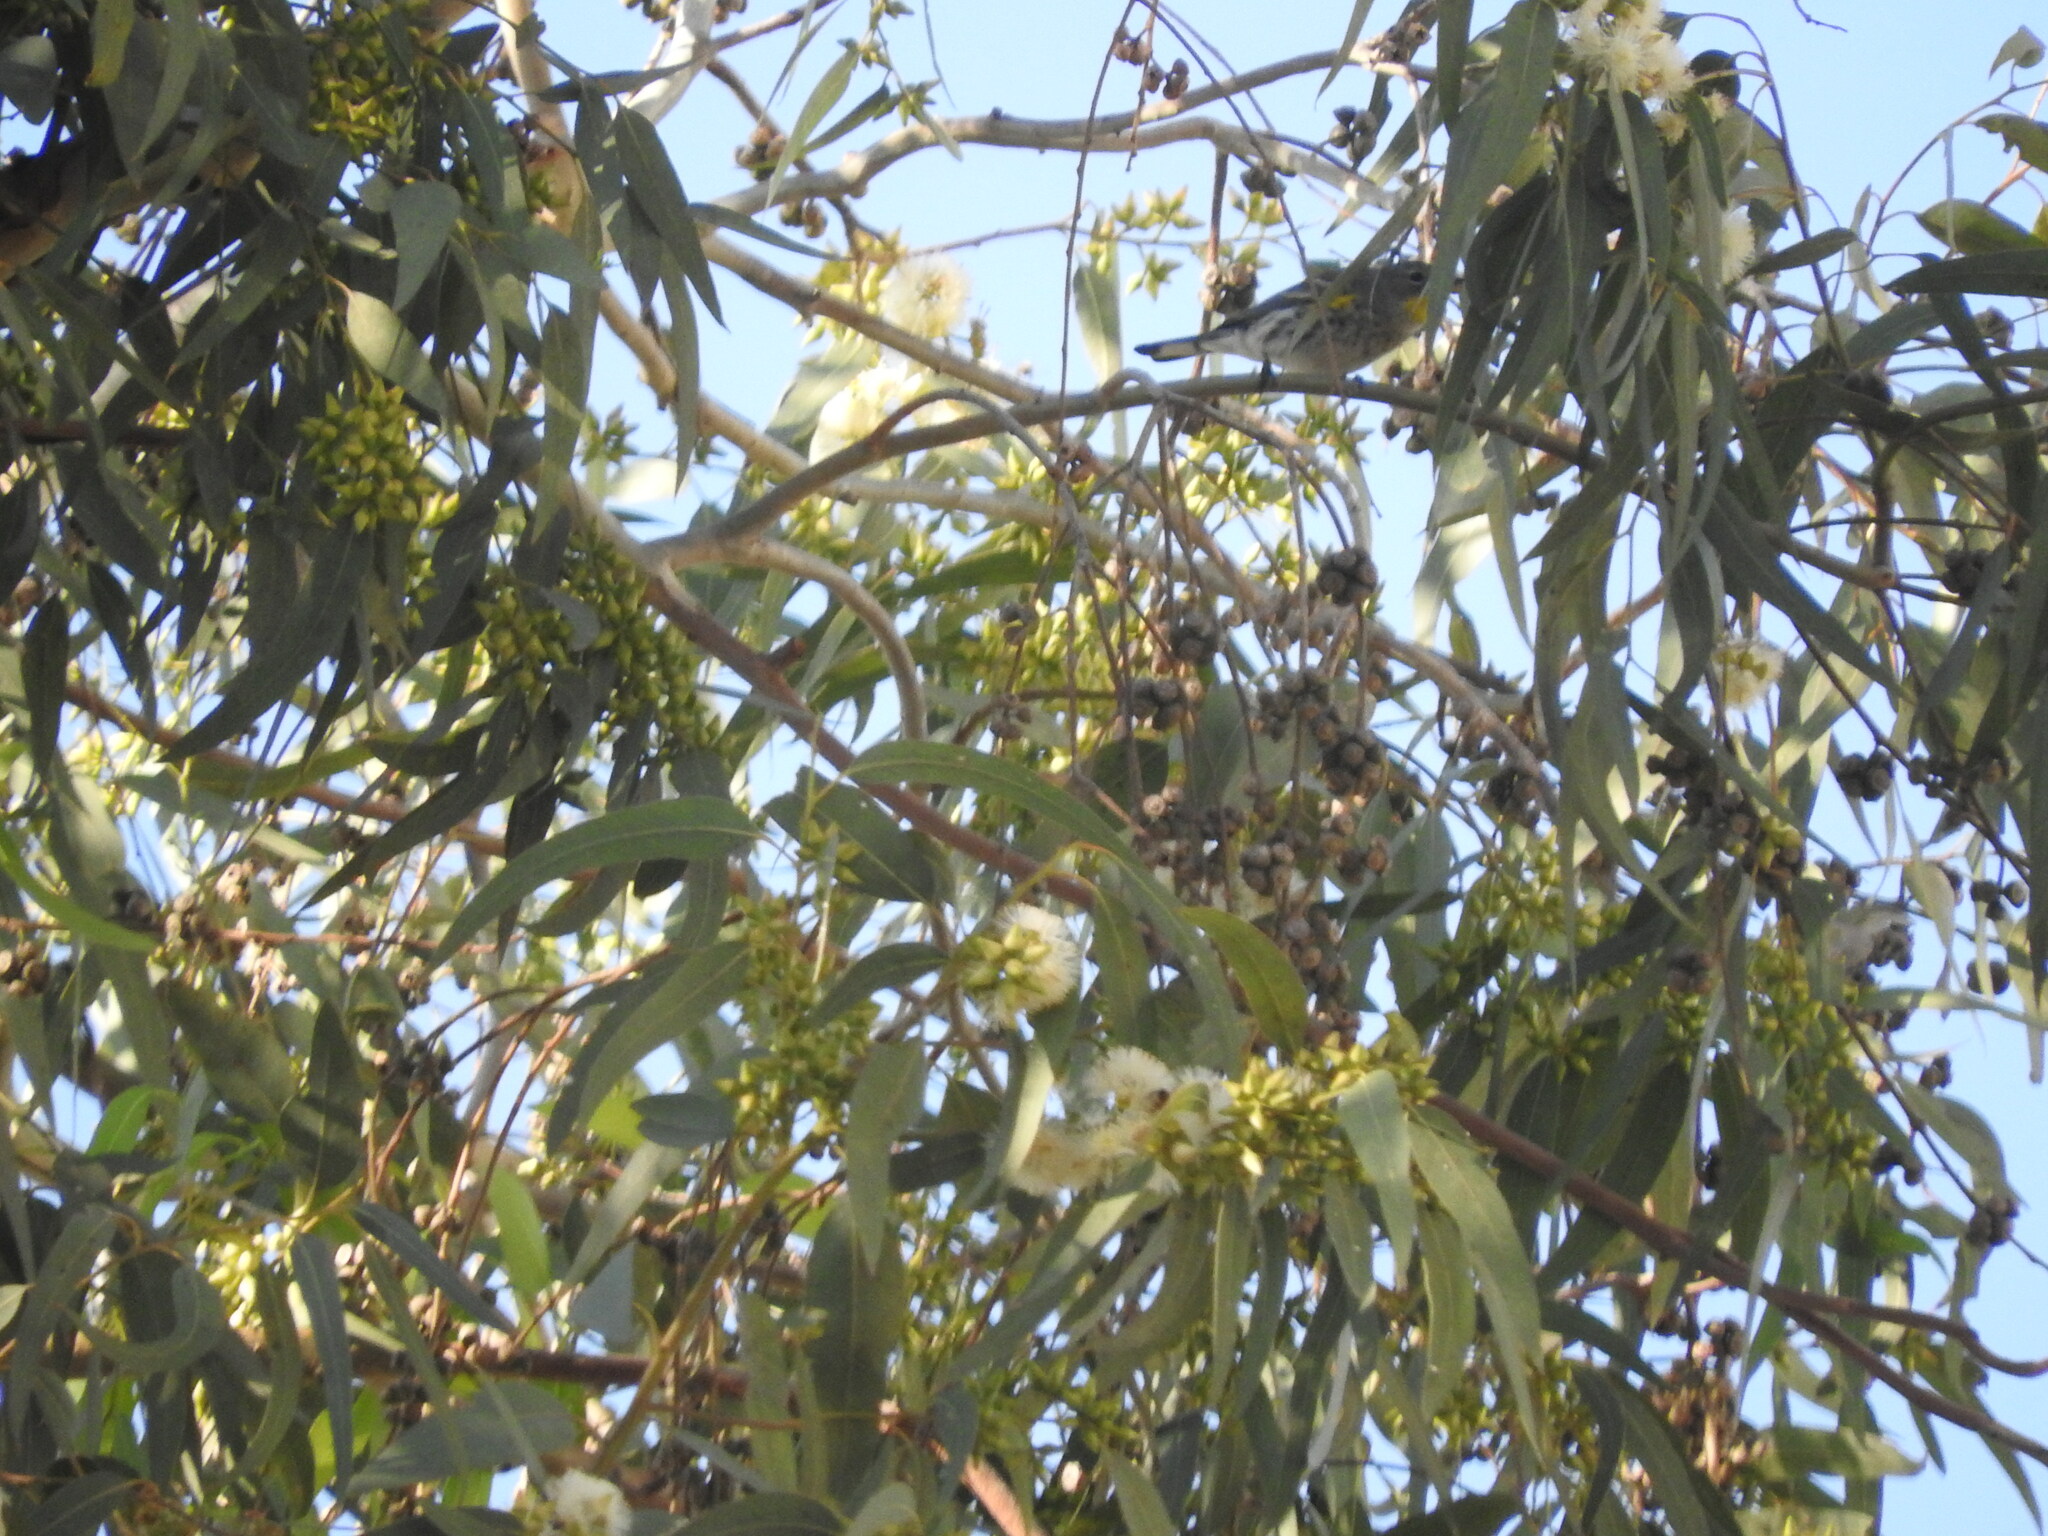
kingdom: Animalia
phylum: Chordata
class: Aves
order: Passeriformes
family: Parulidae
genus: Setophaga
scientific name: Setophaga coronata
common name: Myrtle warbler
